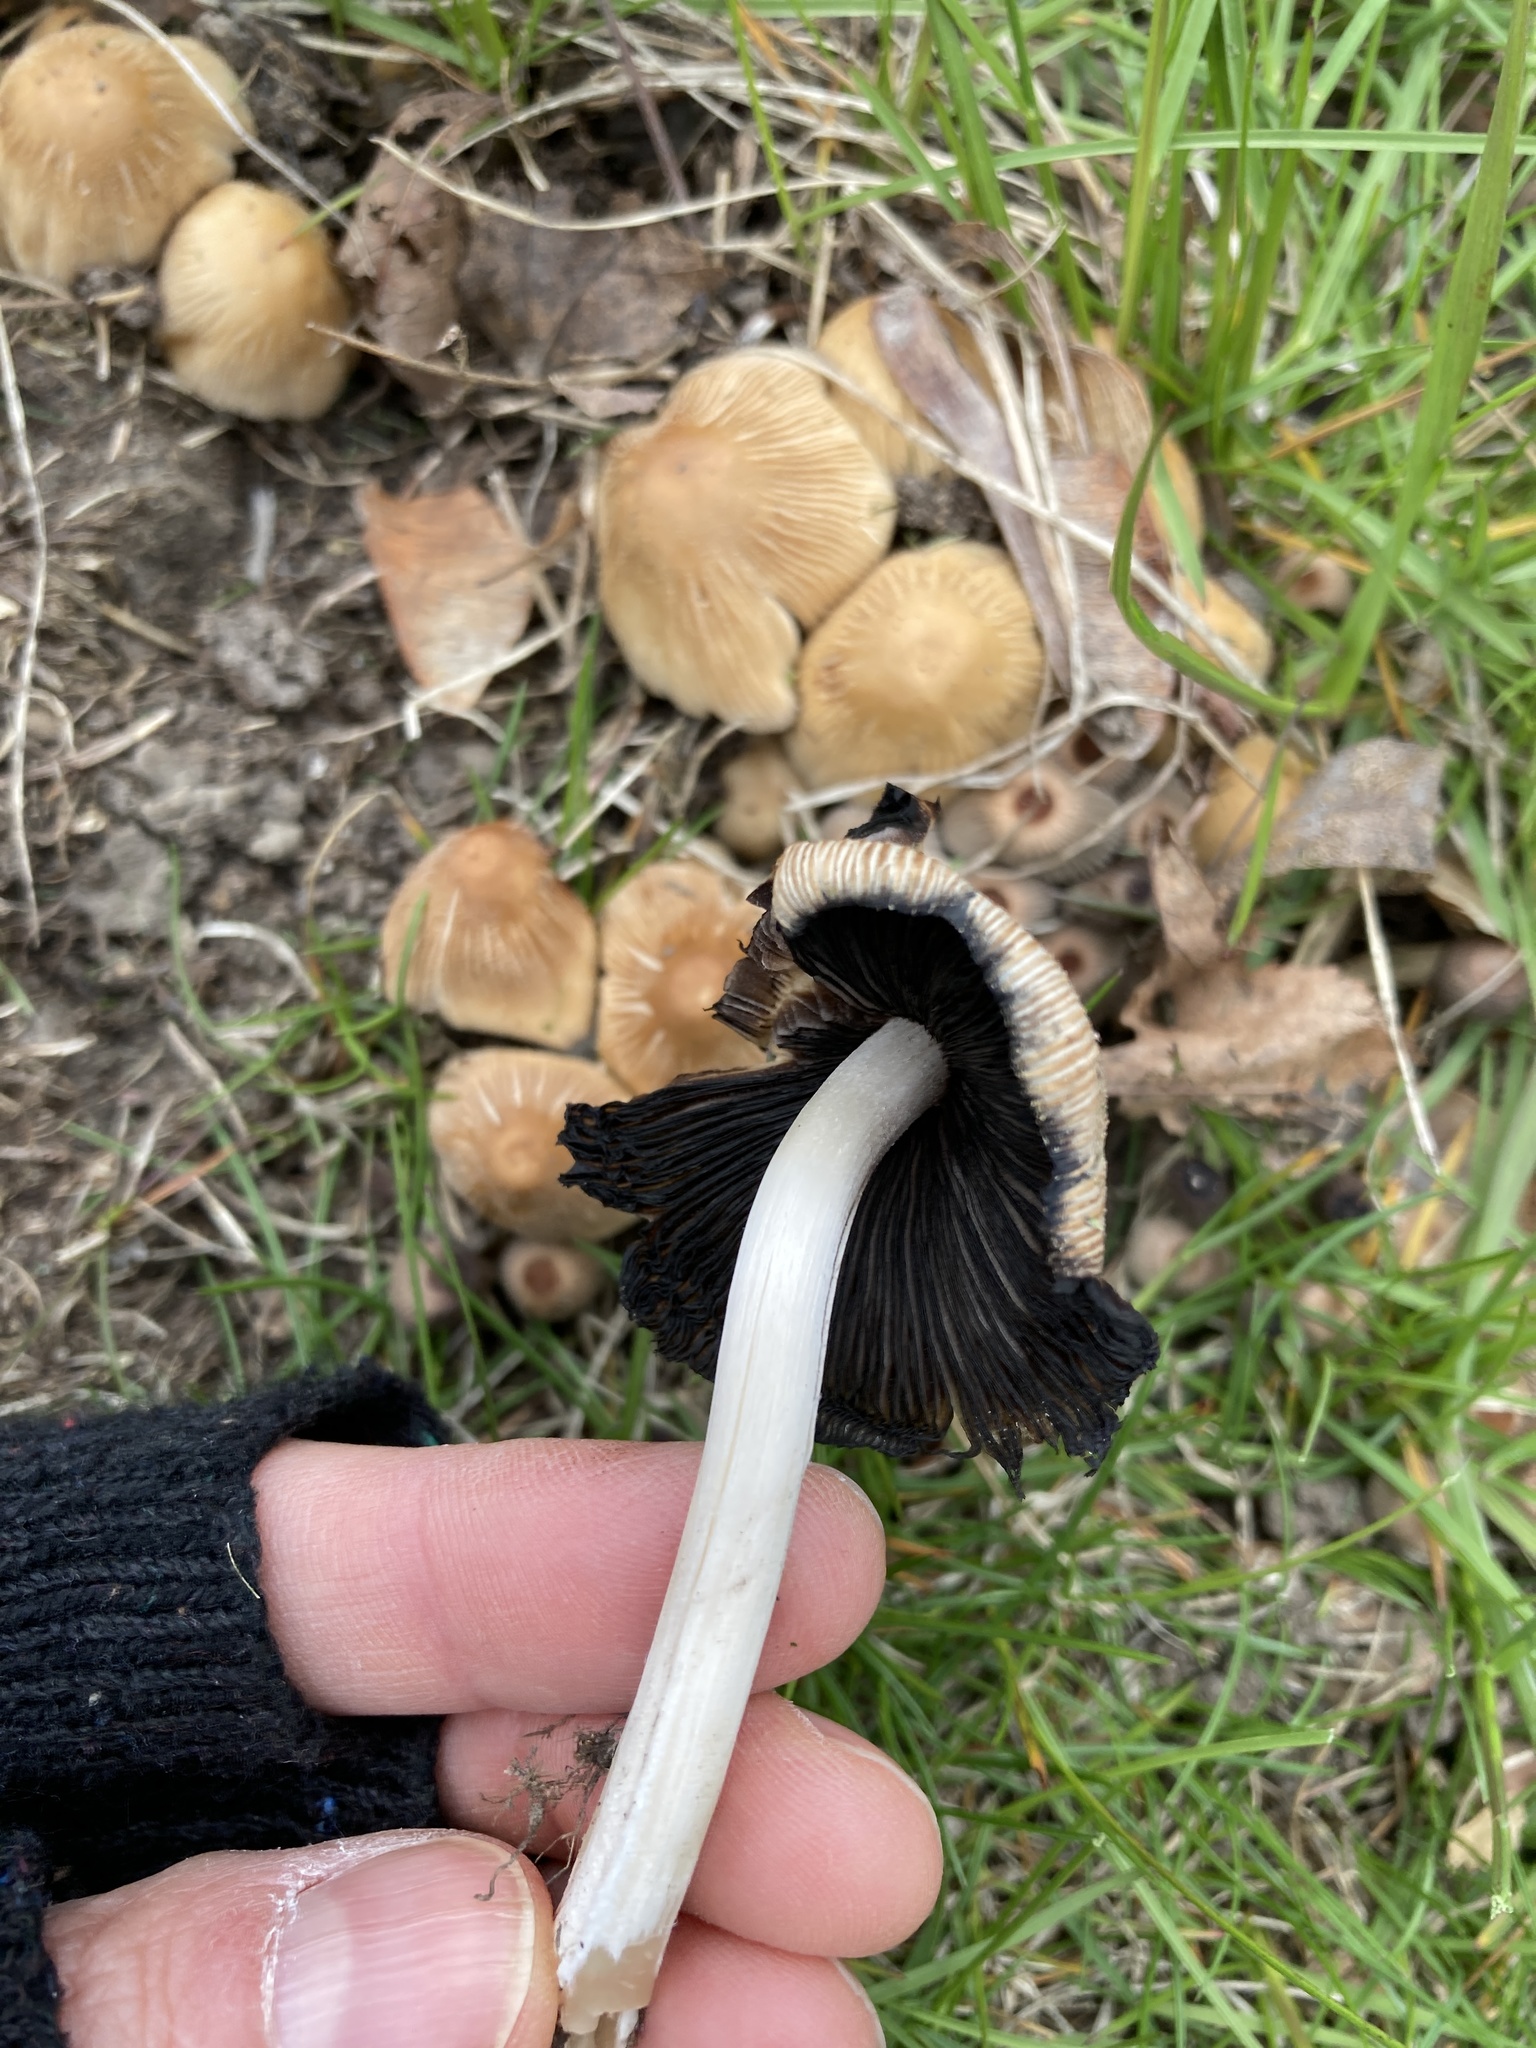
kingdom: Fungi
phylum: Basidiomycota
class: Agaricomycetes
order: Agaricales
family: Psathyrellaceae
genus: Coprinellus
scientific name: Coprinellus micaceus
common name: Glistening ink-cap
